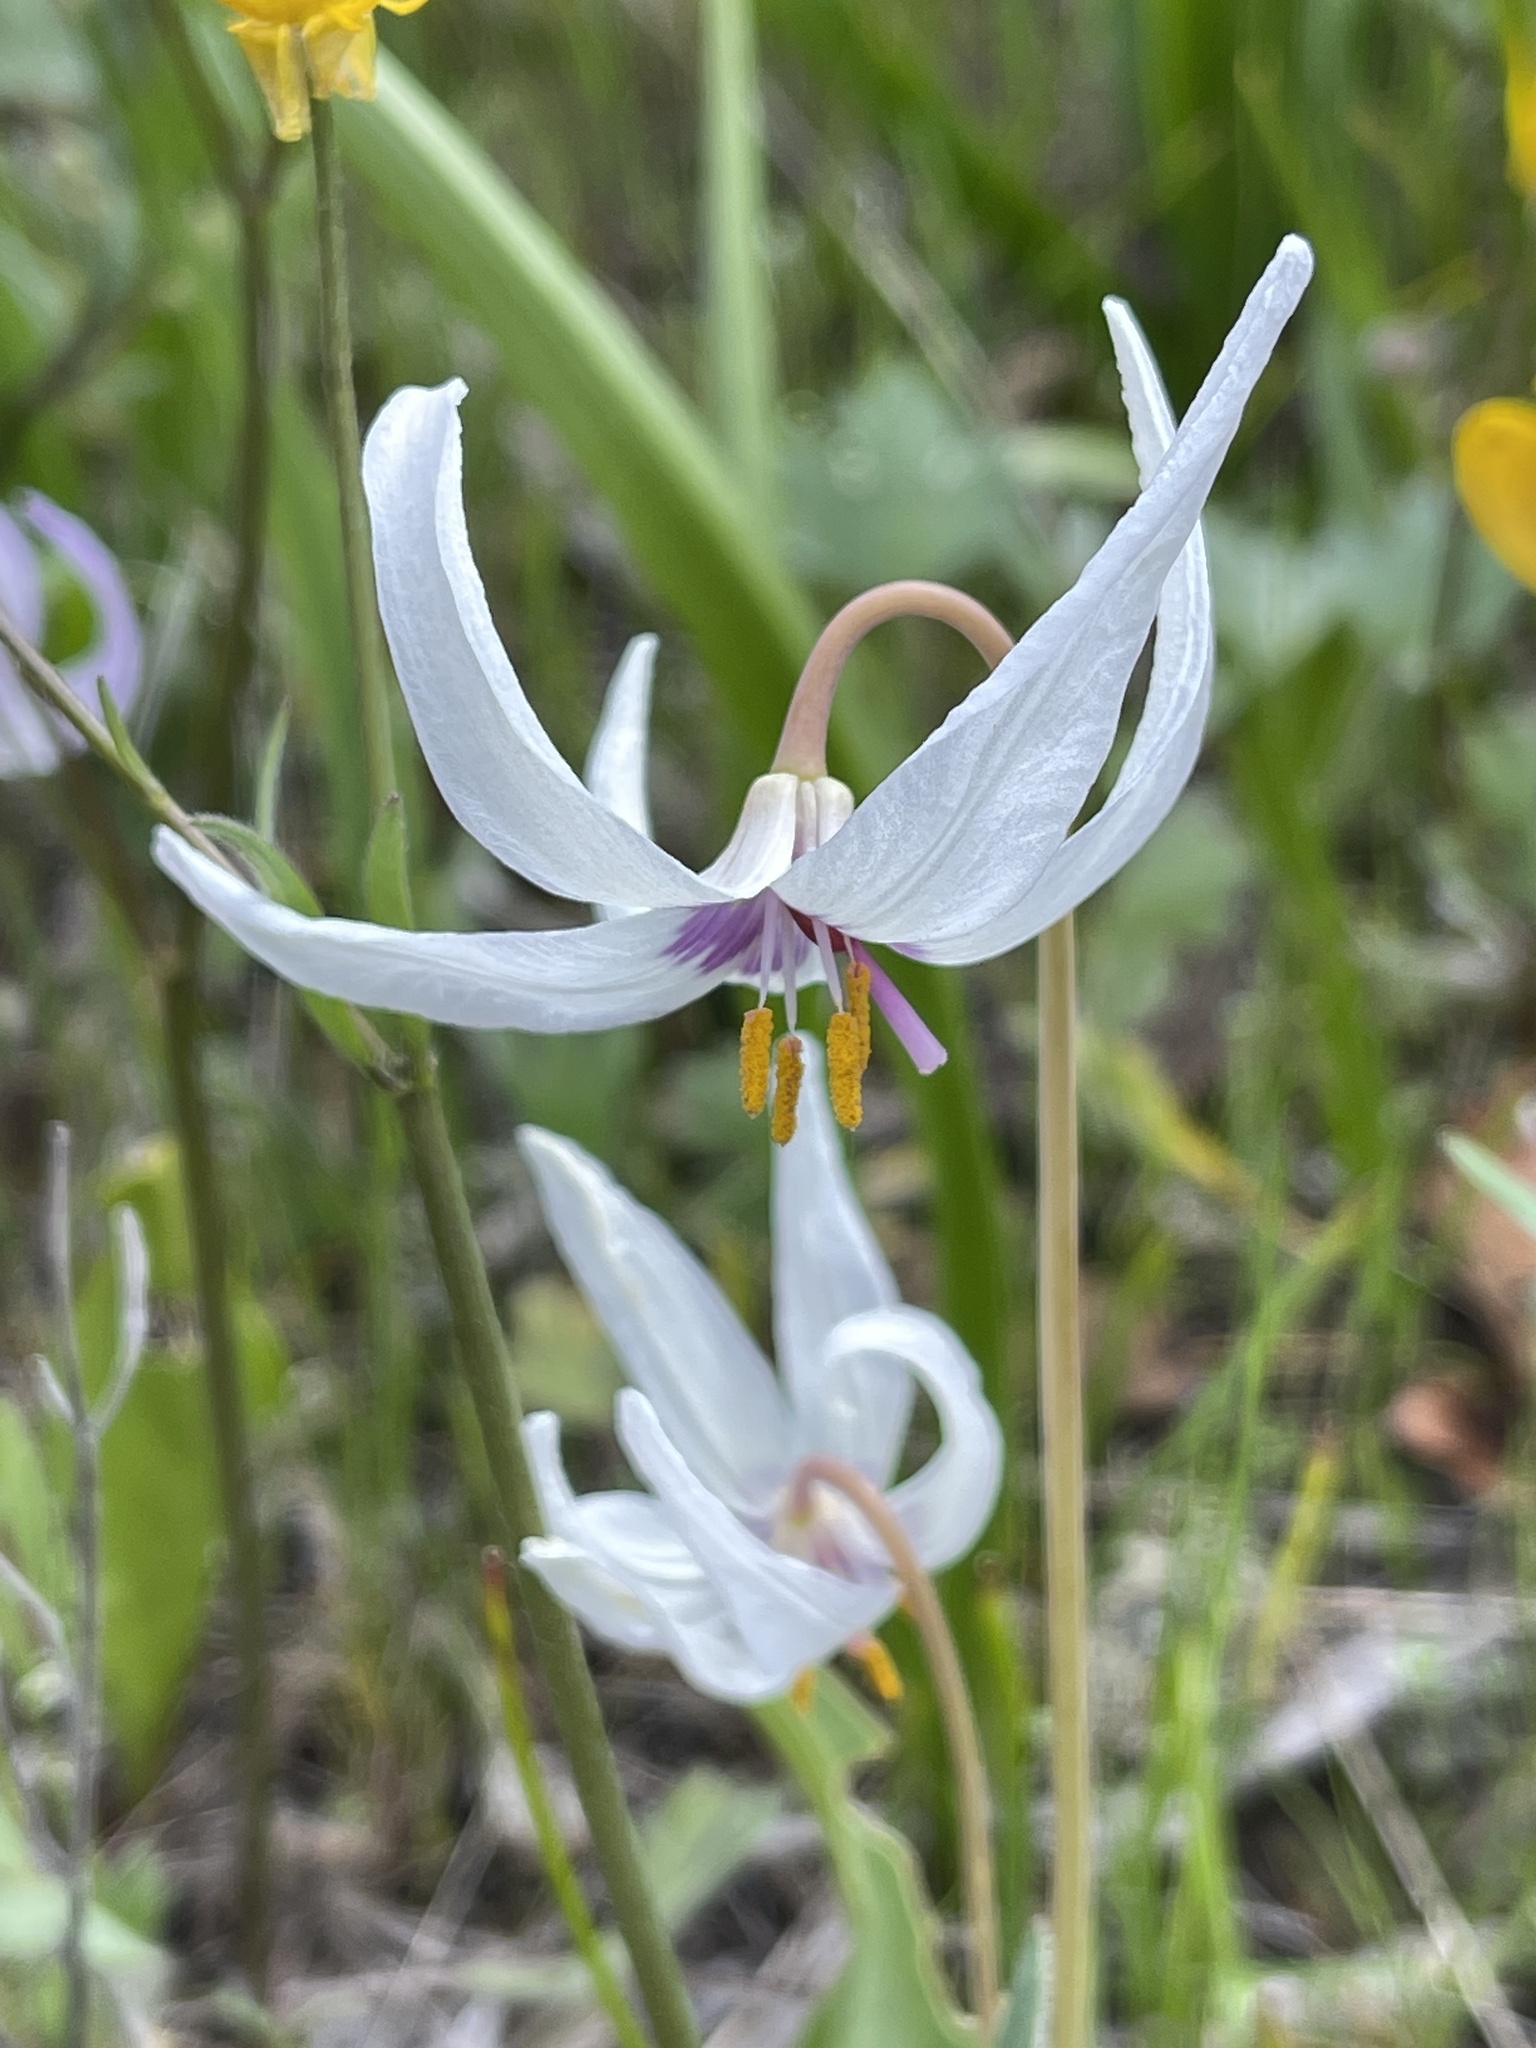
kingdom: Plantae
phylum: Tracheophyta
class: Liliopsida
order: Liliales
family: Liliaceae
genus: Erythronium
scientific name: Erythronium hendersonii
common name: Henderson's fawn-lily
